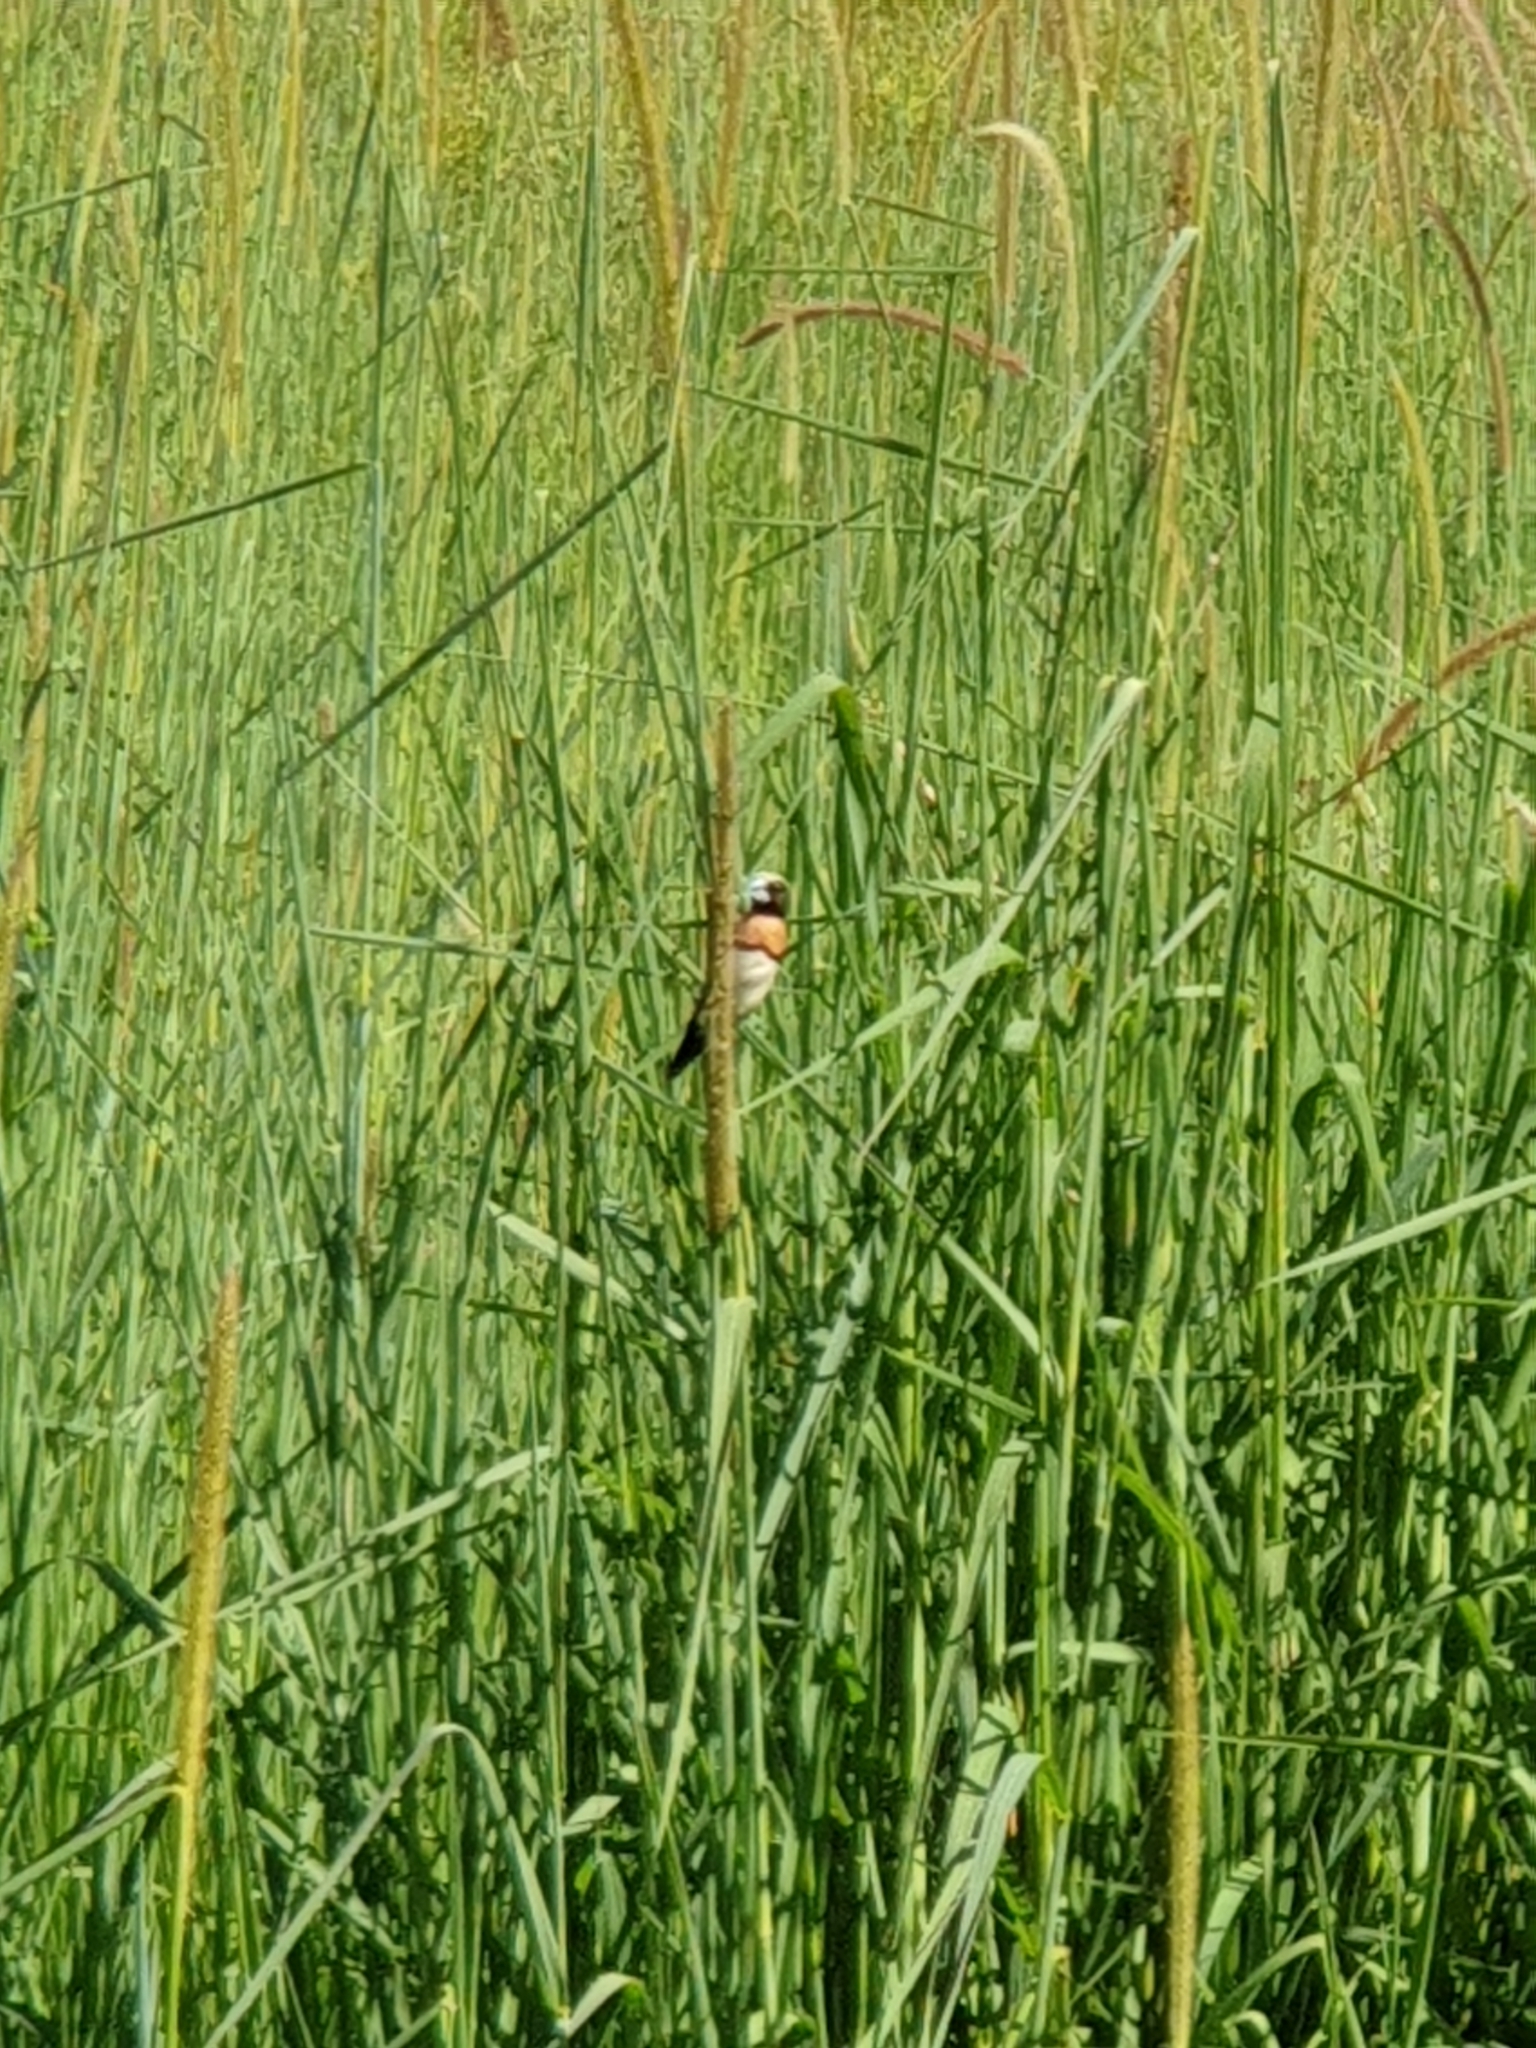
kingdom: Animalia
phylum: Chordata
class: Aves
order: Passeriformes
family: Estrildidae
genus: Lonchura
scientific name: Lonchura castaneothorax
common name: Chestnut-breasted mannikin
